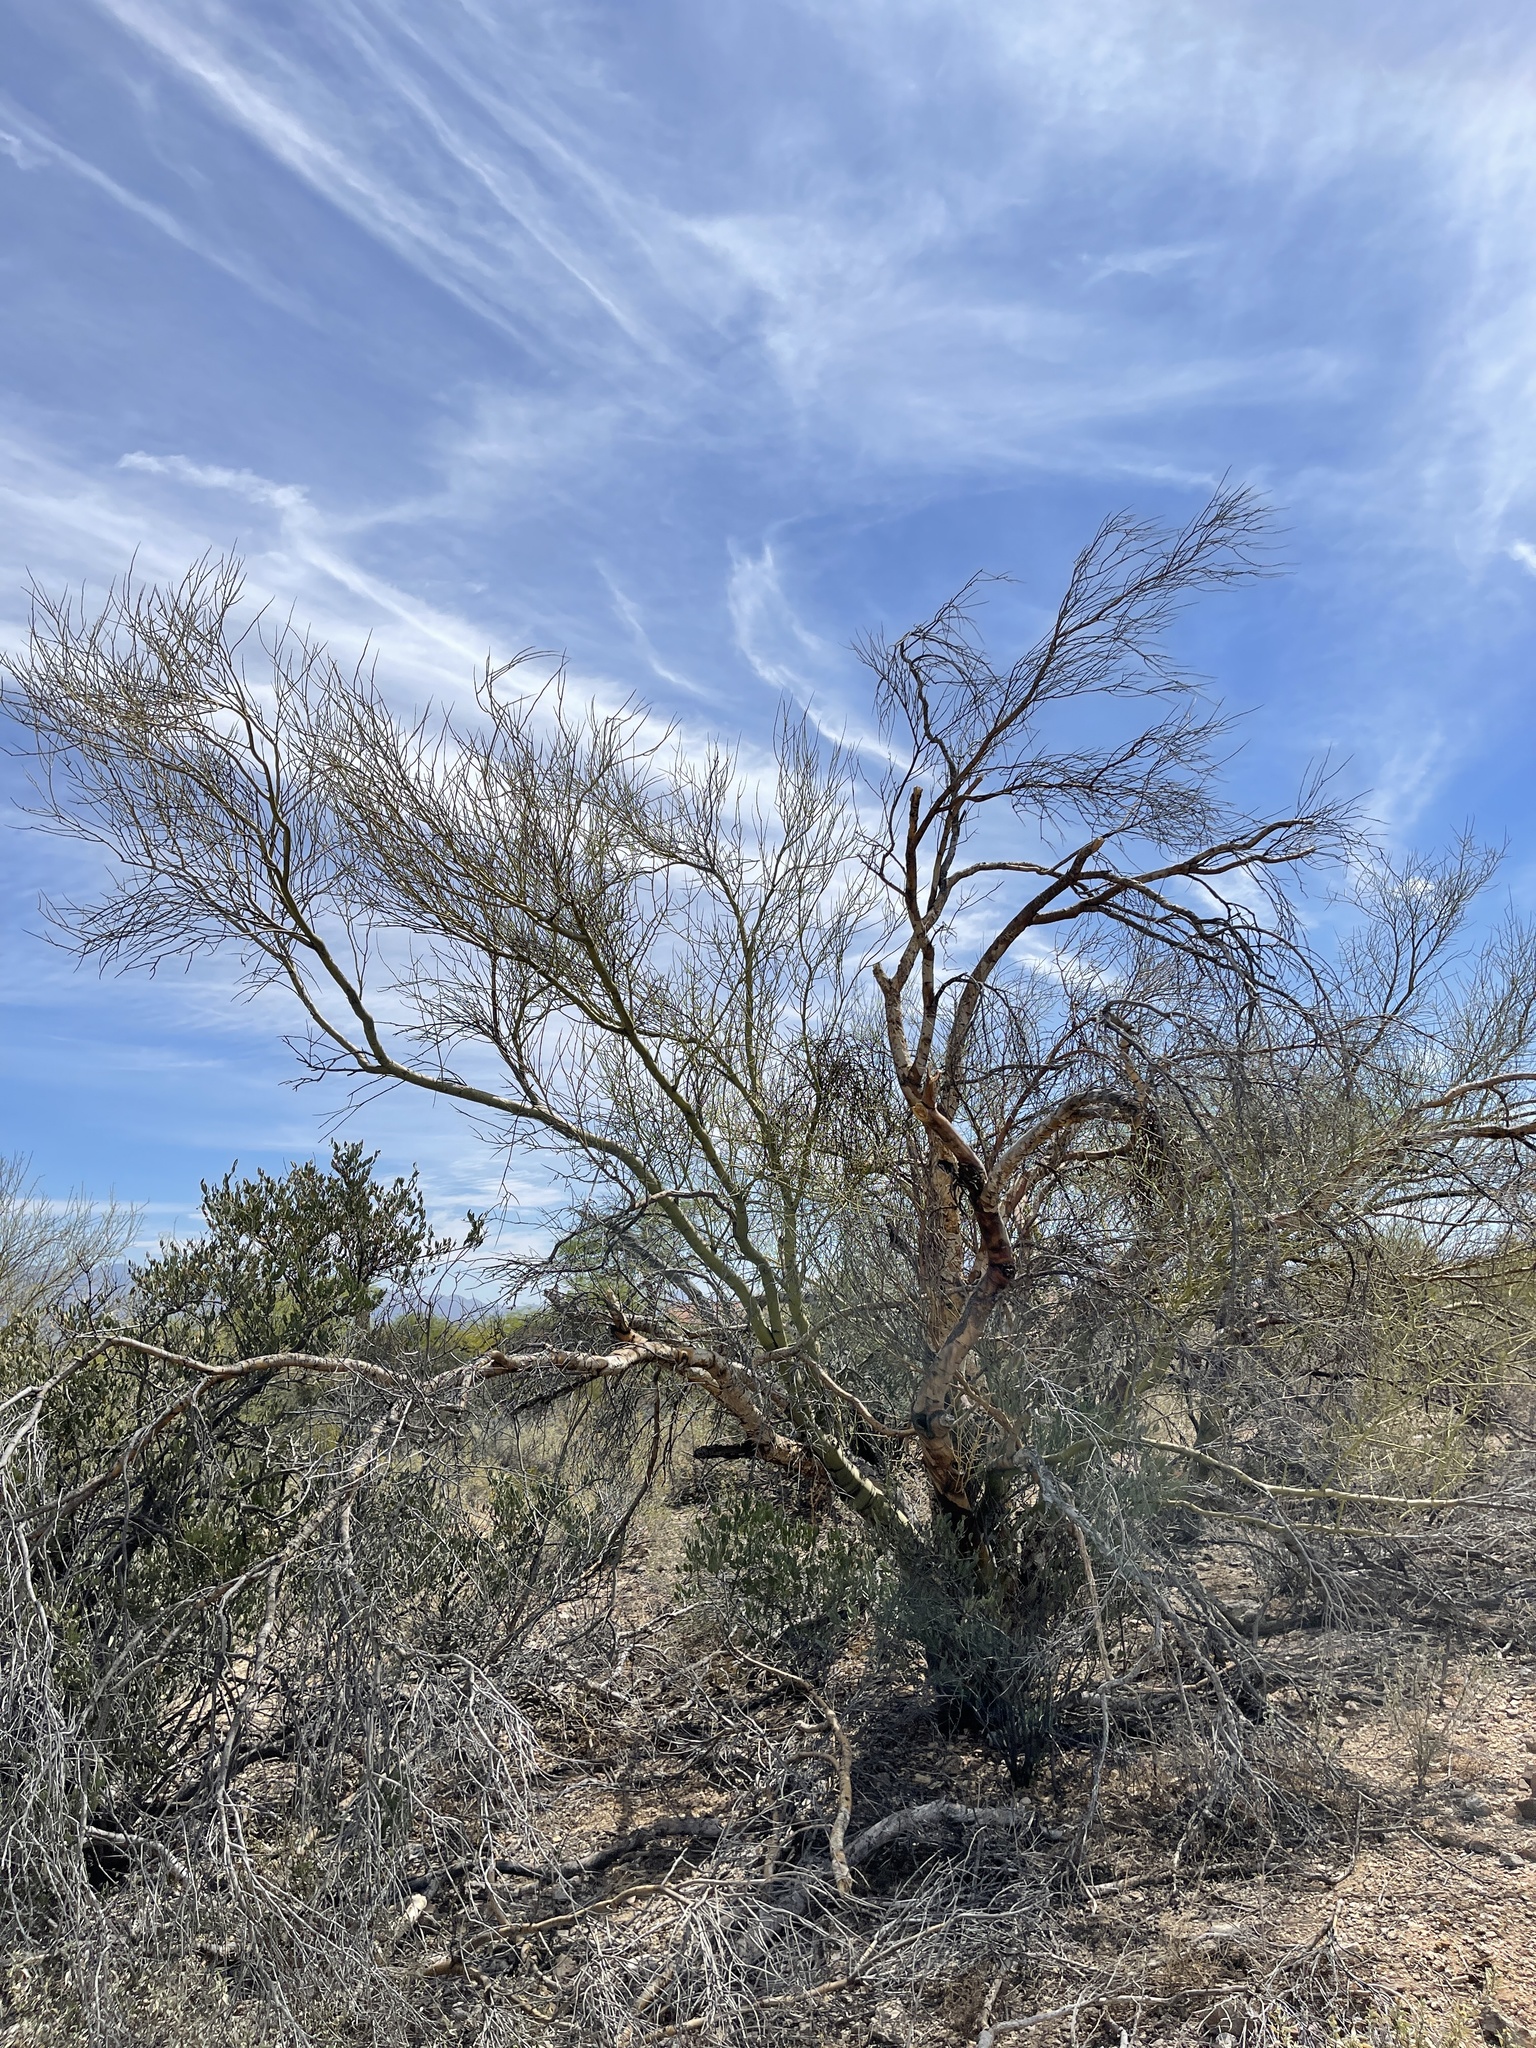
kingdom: Plantae
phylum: Tracheophyta
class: Magnoliopsida
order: Fabales
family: Fabaceae
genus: Parkinsonia
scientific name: Parkinsonia microphylla
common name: Yellow paloverde
